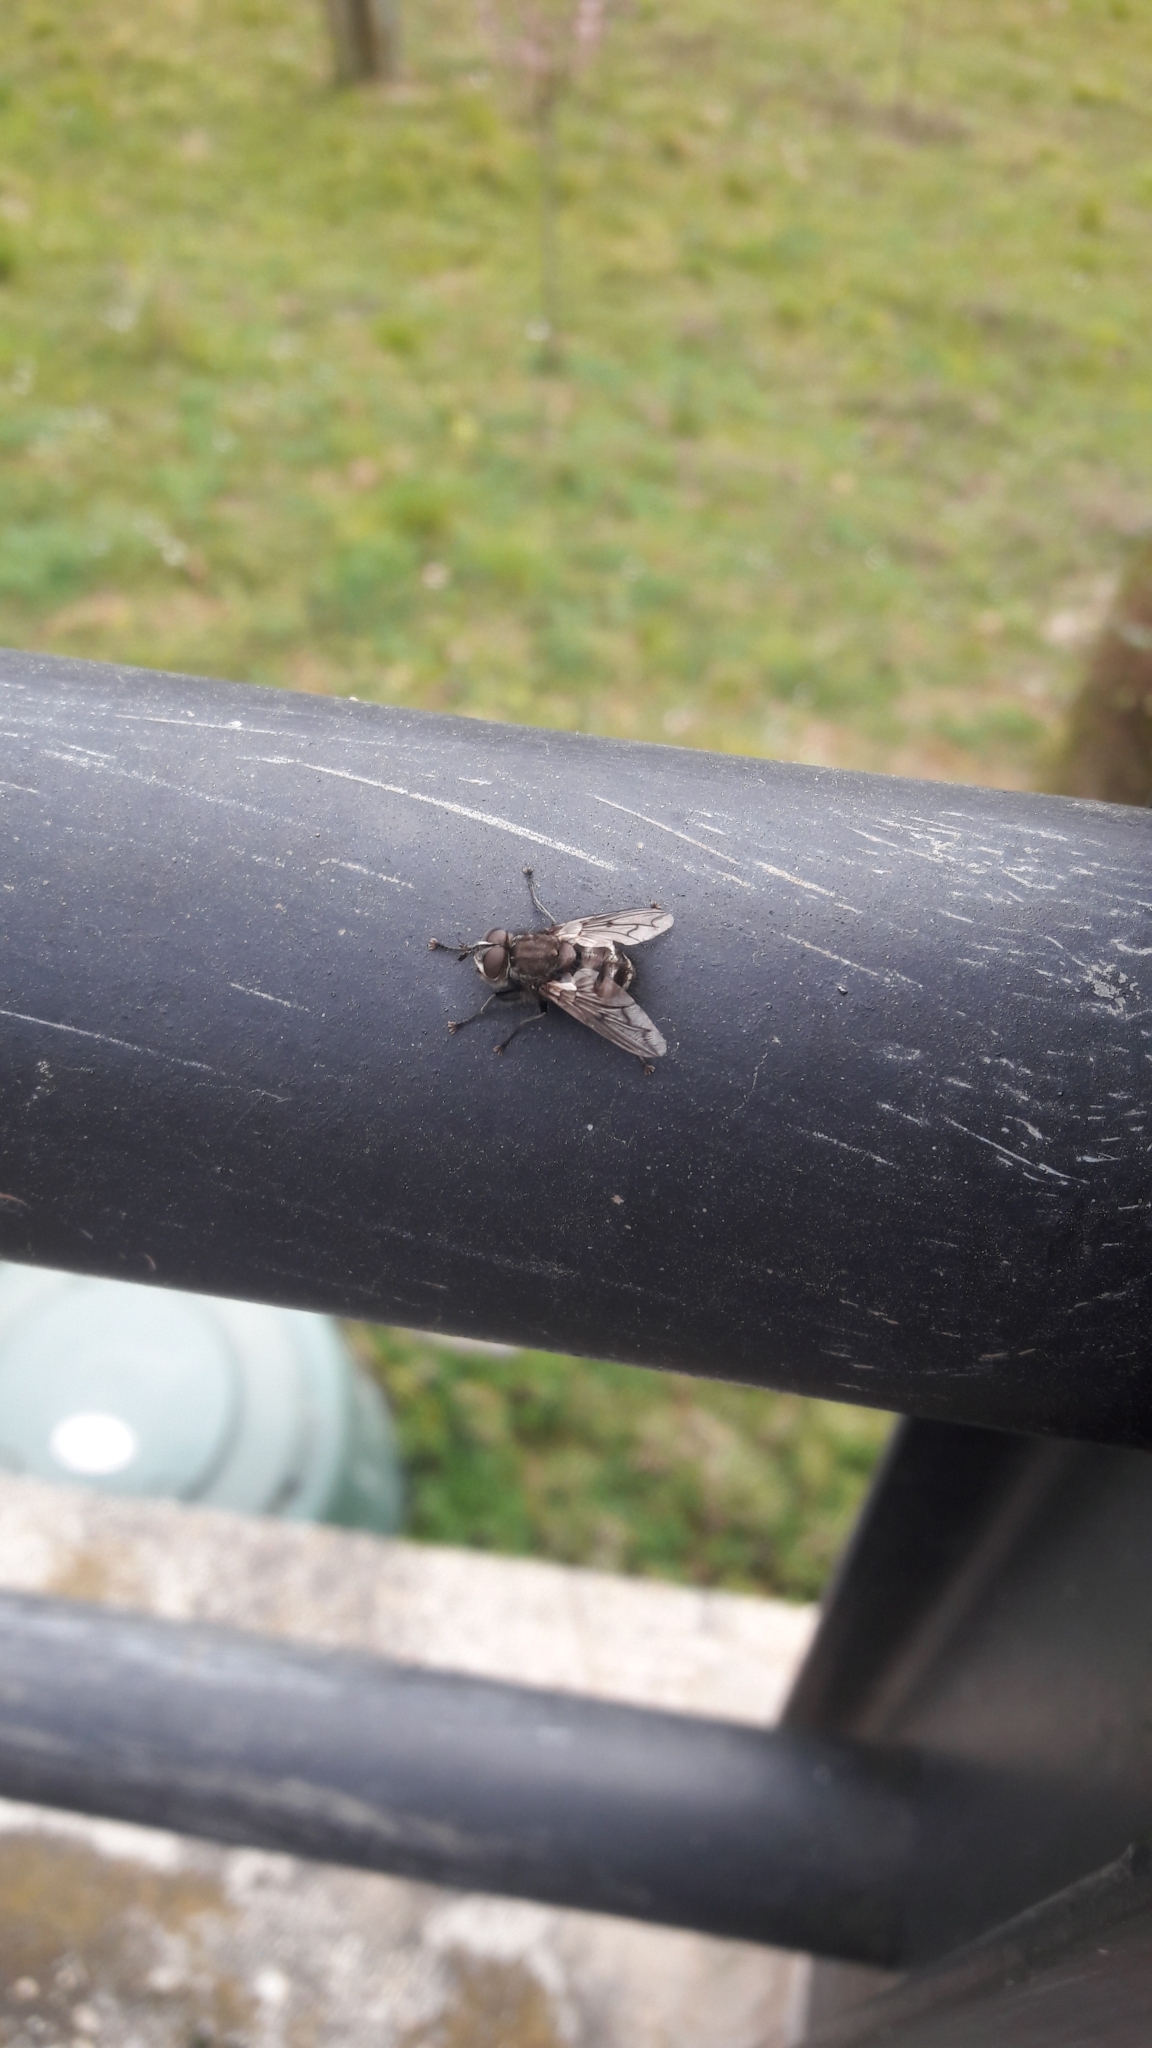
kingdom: Animalia
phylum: Arthropoda
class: Insecta
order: Diptera
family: Tachinidae
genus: Panzeria
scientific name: Panzeria puparum
